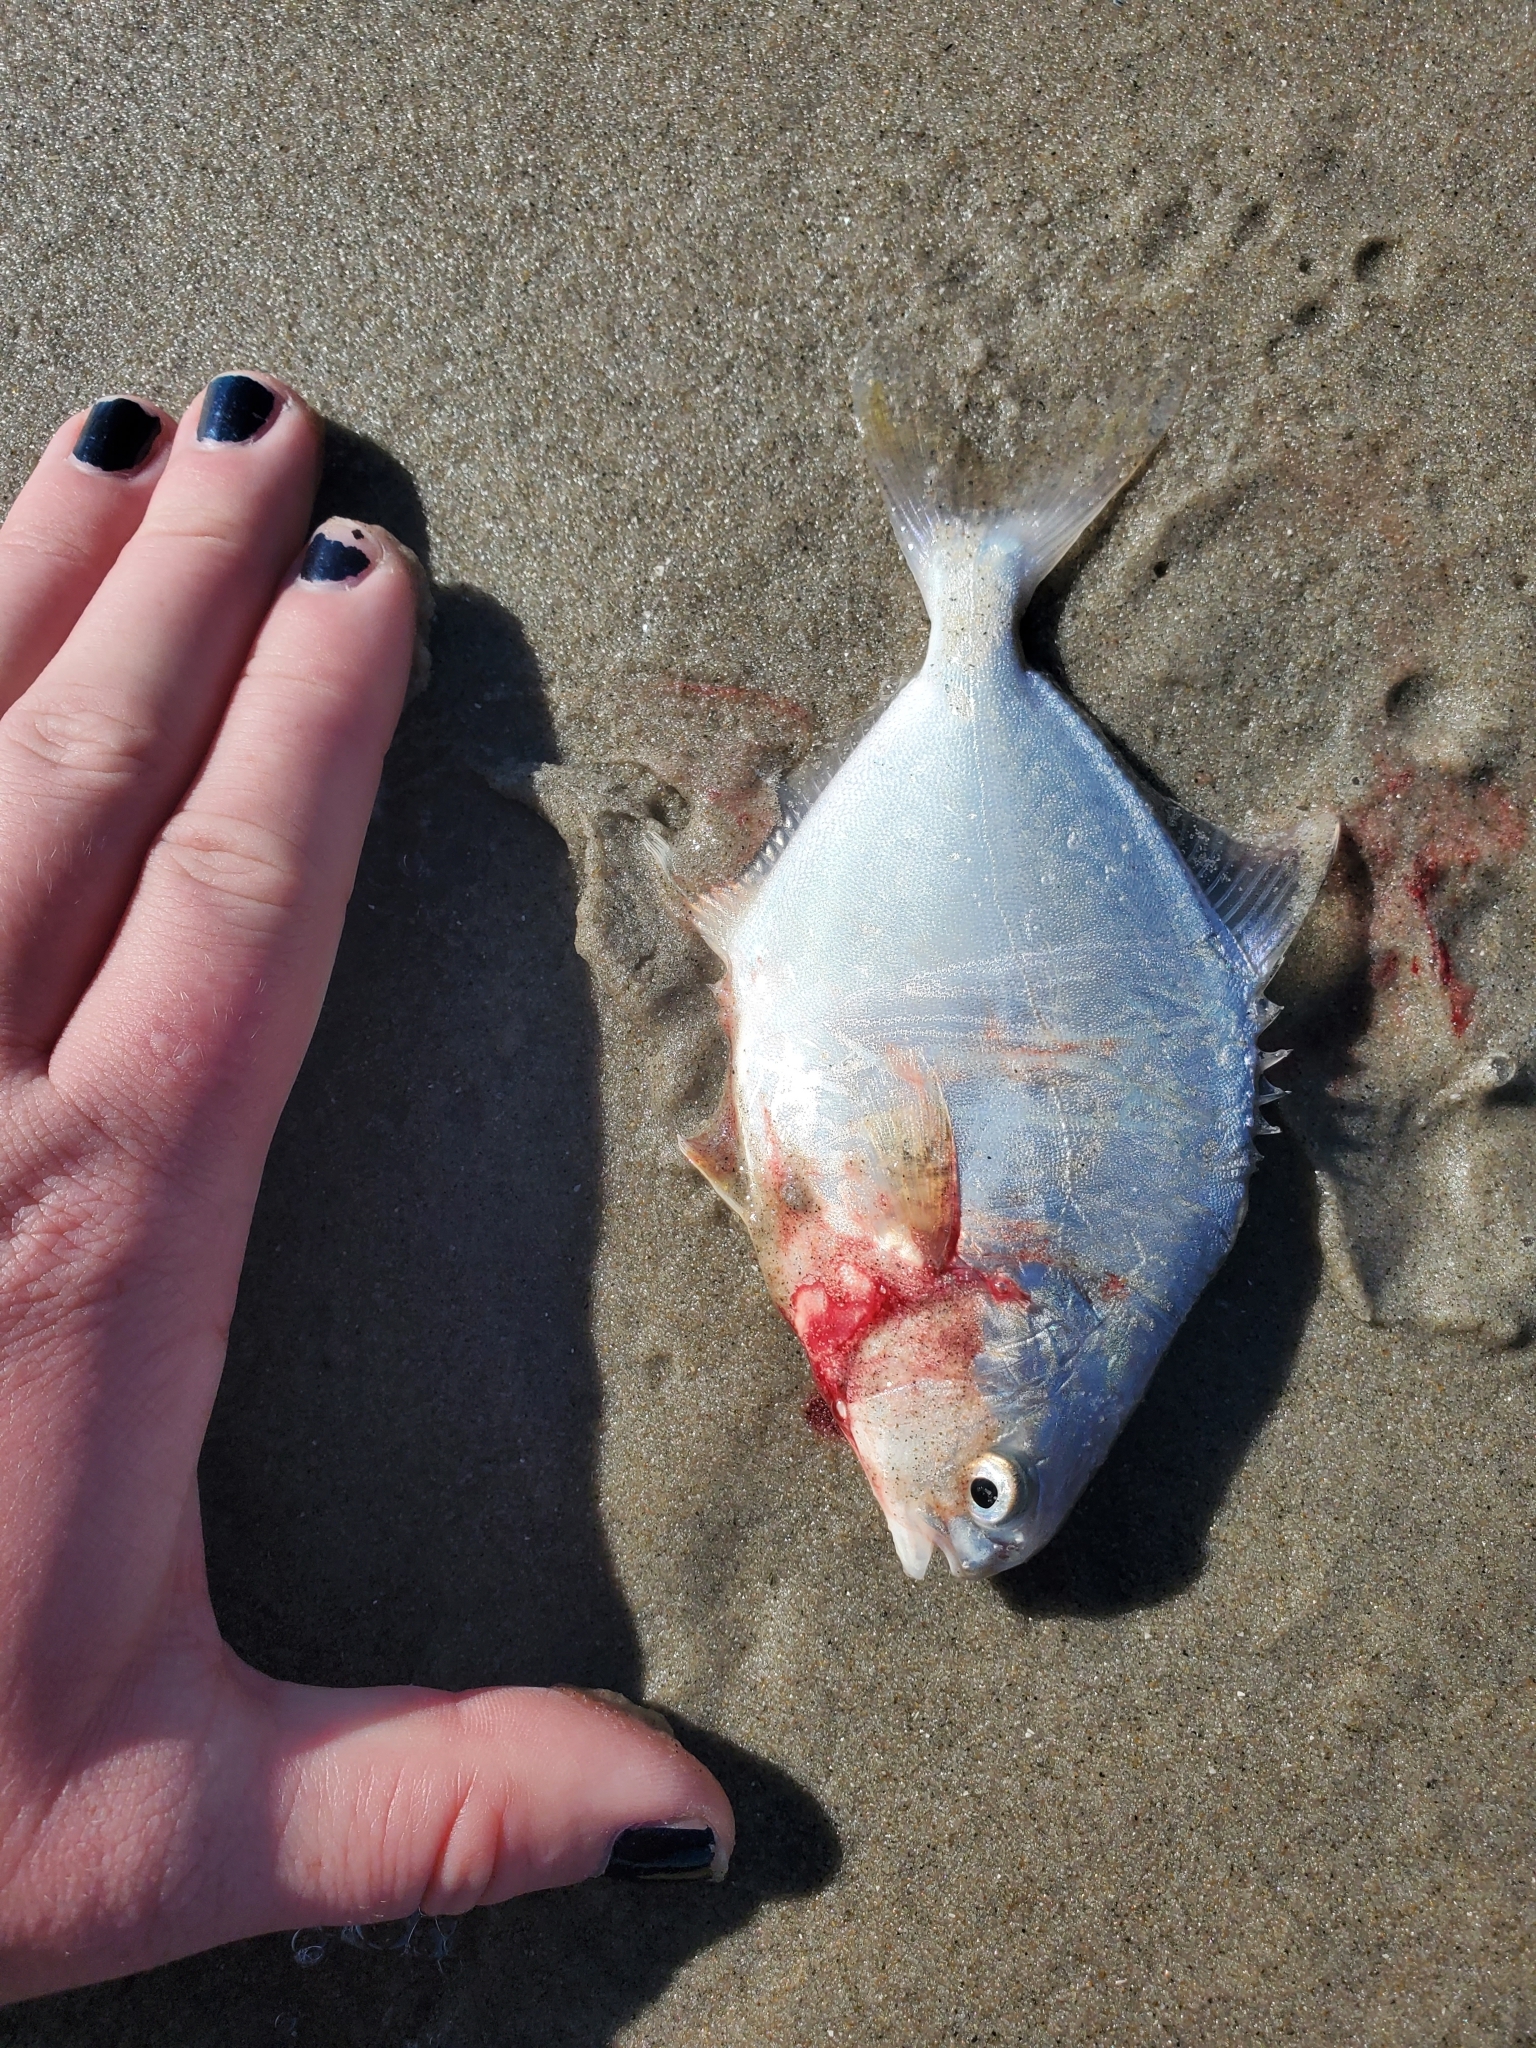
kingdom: Animalia
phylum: Chordata
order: Perciformes
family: Carangidae
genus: Trachinotus
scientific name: Trachinotus falcatus
